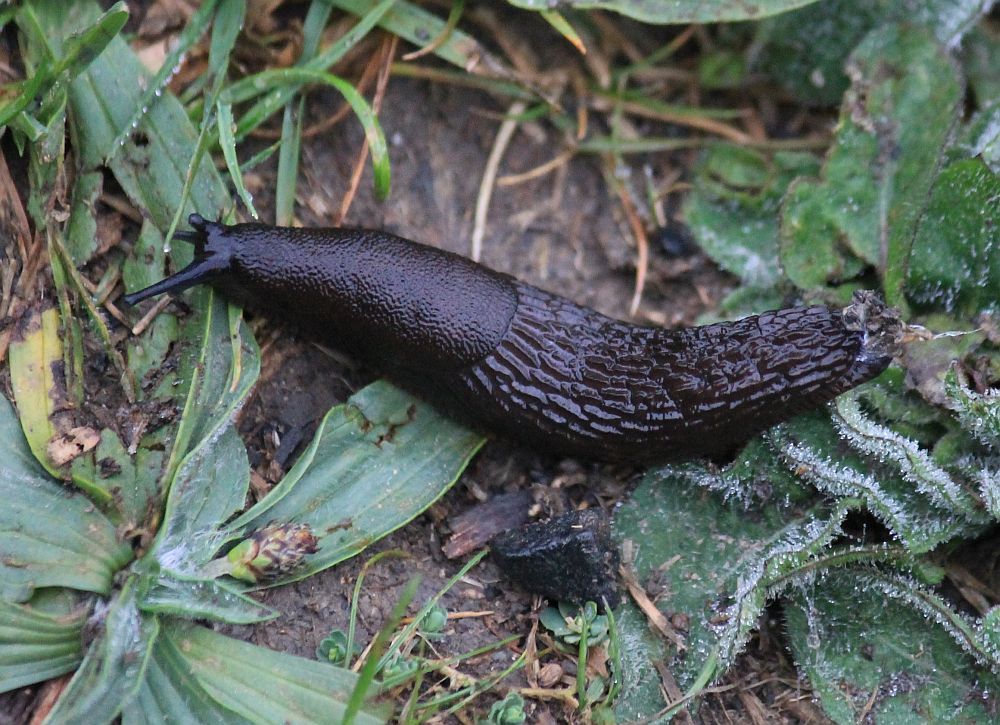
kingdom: Animalia
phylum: Mollusca
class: Gastropoda
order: Stylommatophora
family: Arionidae
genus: Arion
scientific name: Arion ater
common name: Black arion
